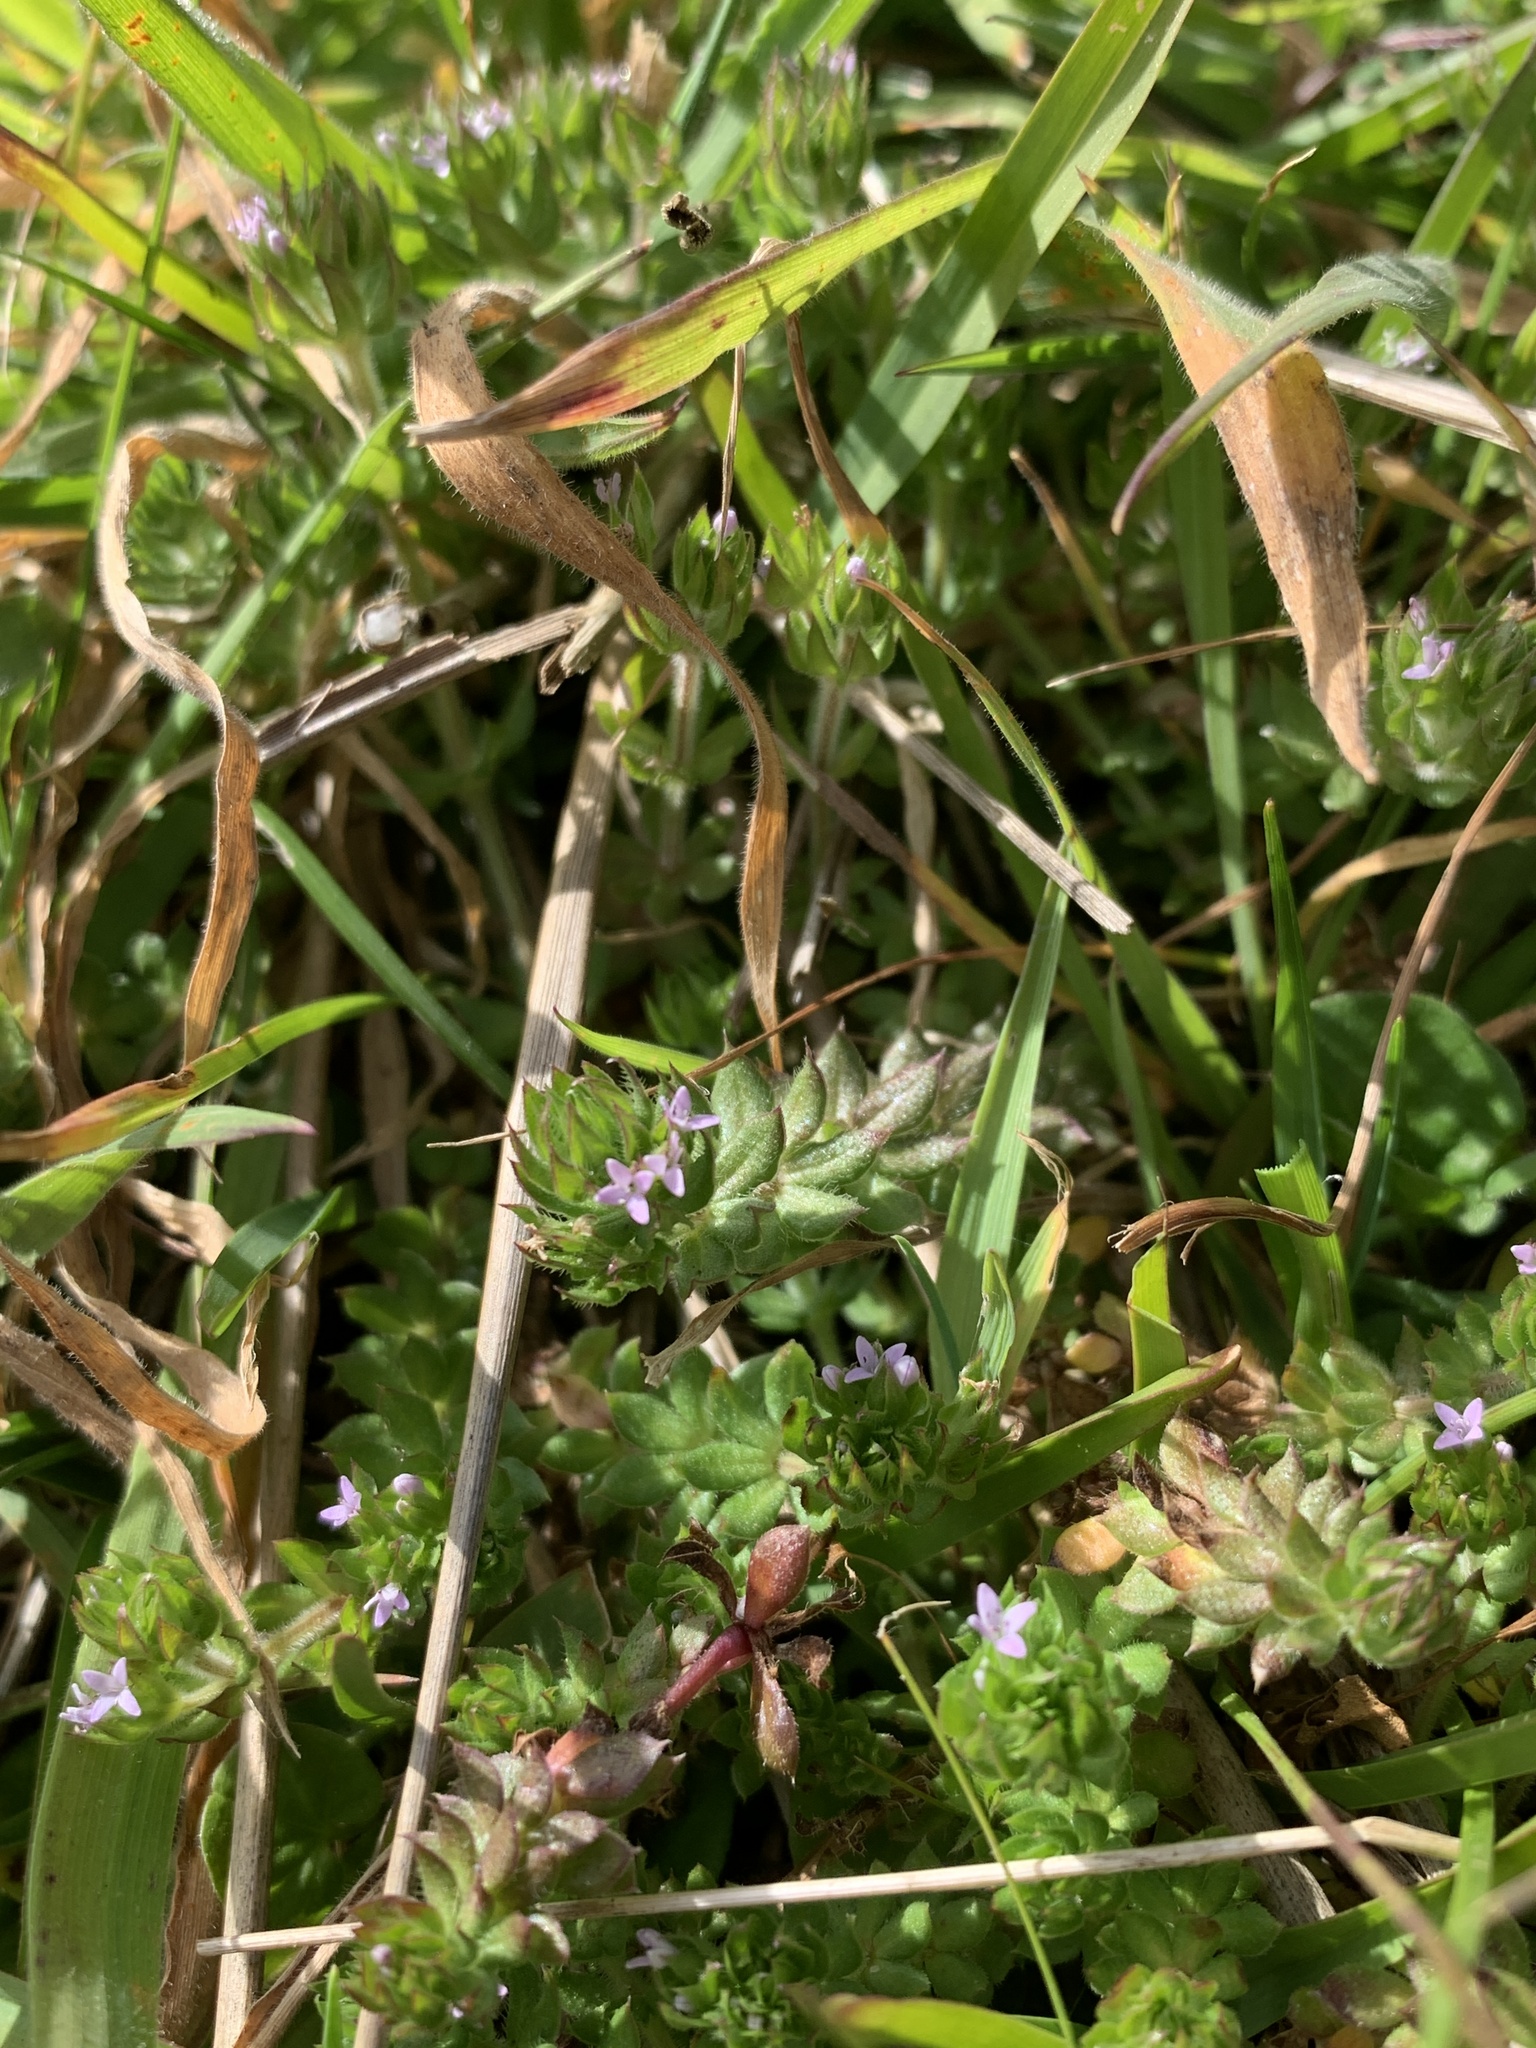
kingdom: Plantae
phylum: Tracheophyta
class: Magnoliopsida
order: Gentianales
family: Rubiaceae
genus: Sherardia
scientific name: Sherardia arvensis
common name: Field madder
